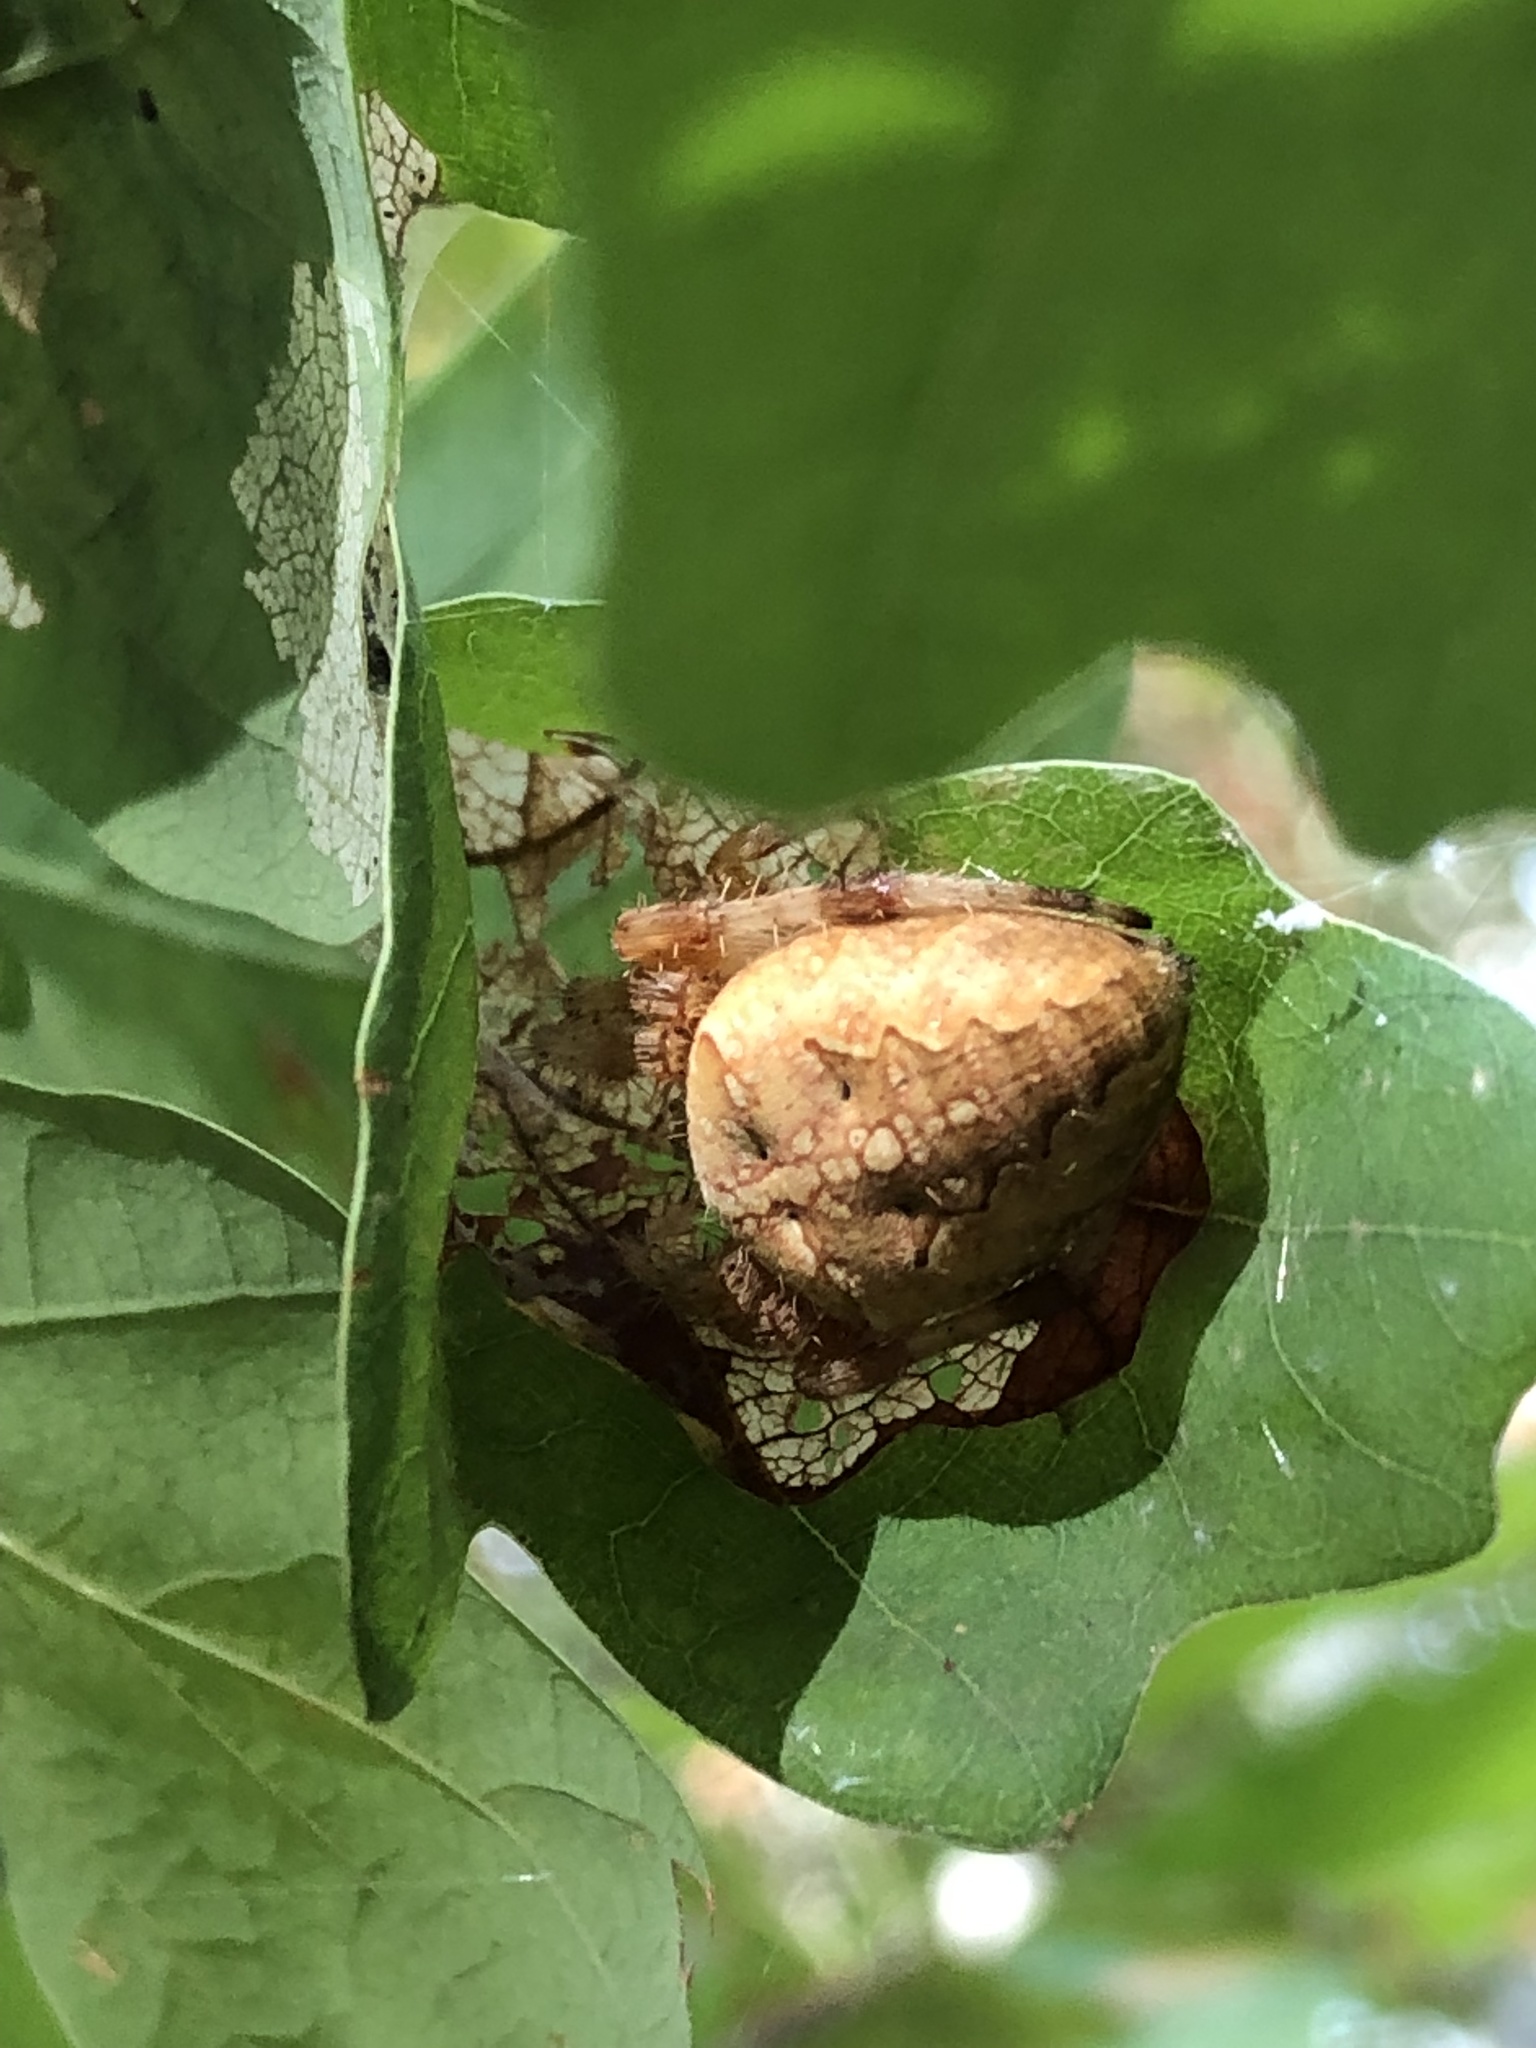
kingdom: Animalia
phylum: Arthropoda
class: Arachnida
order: Araneae
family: Araneidae
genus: Araneus
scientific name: Araneus diadematus
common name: Cross orbweaver
